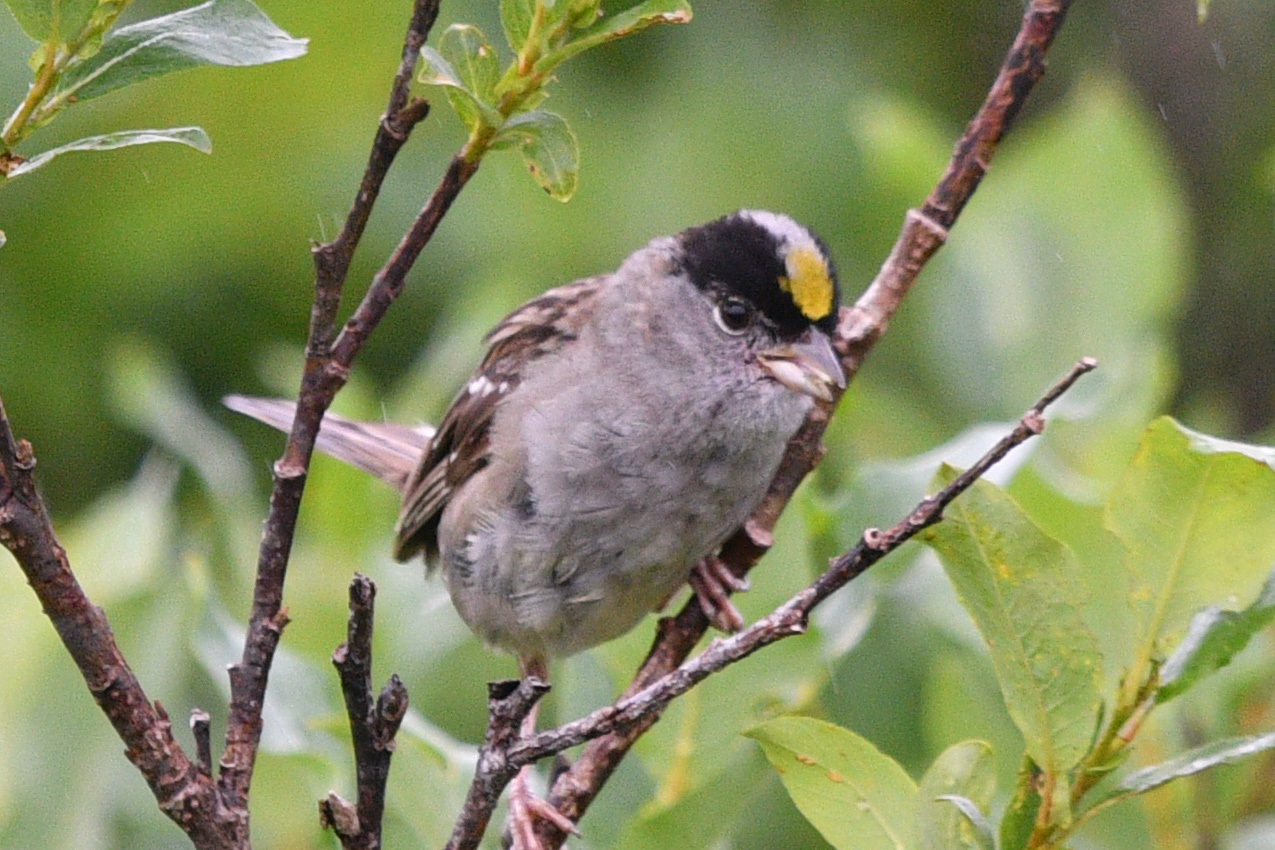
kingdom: Animalia
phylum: Chordata
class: Aves
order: Passeriformes
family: Passerellidae
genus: Zonotrichia
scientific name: Zonotrichia atricapilla
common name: Golden-crowned sparrow
